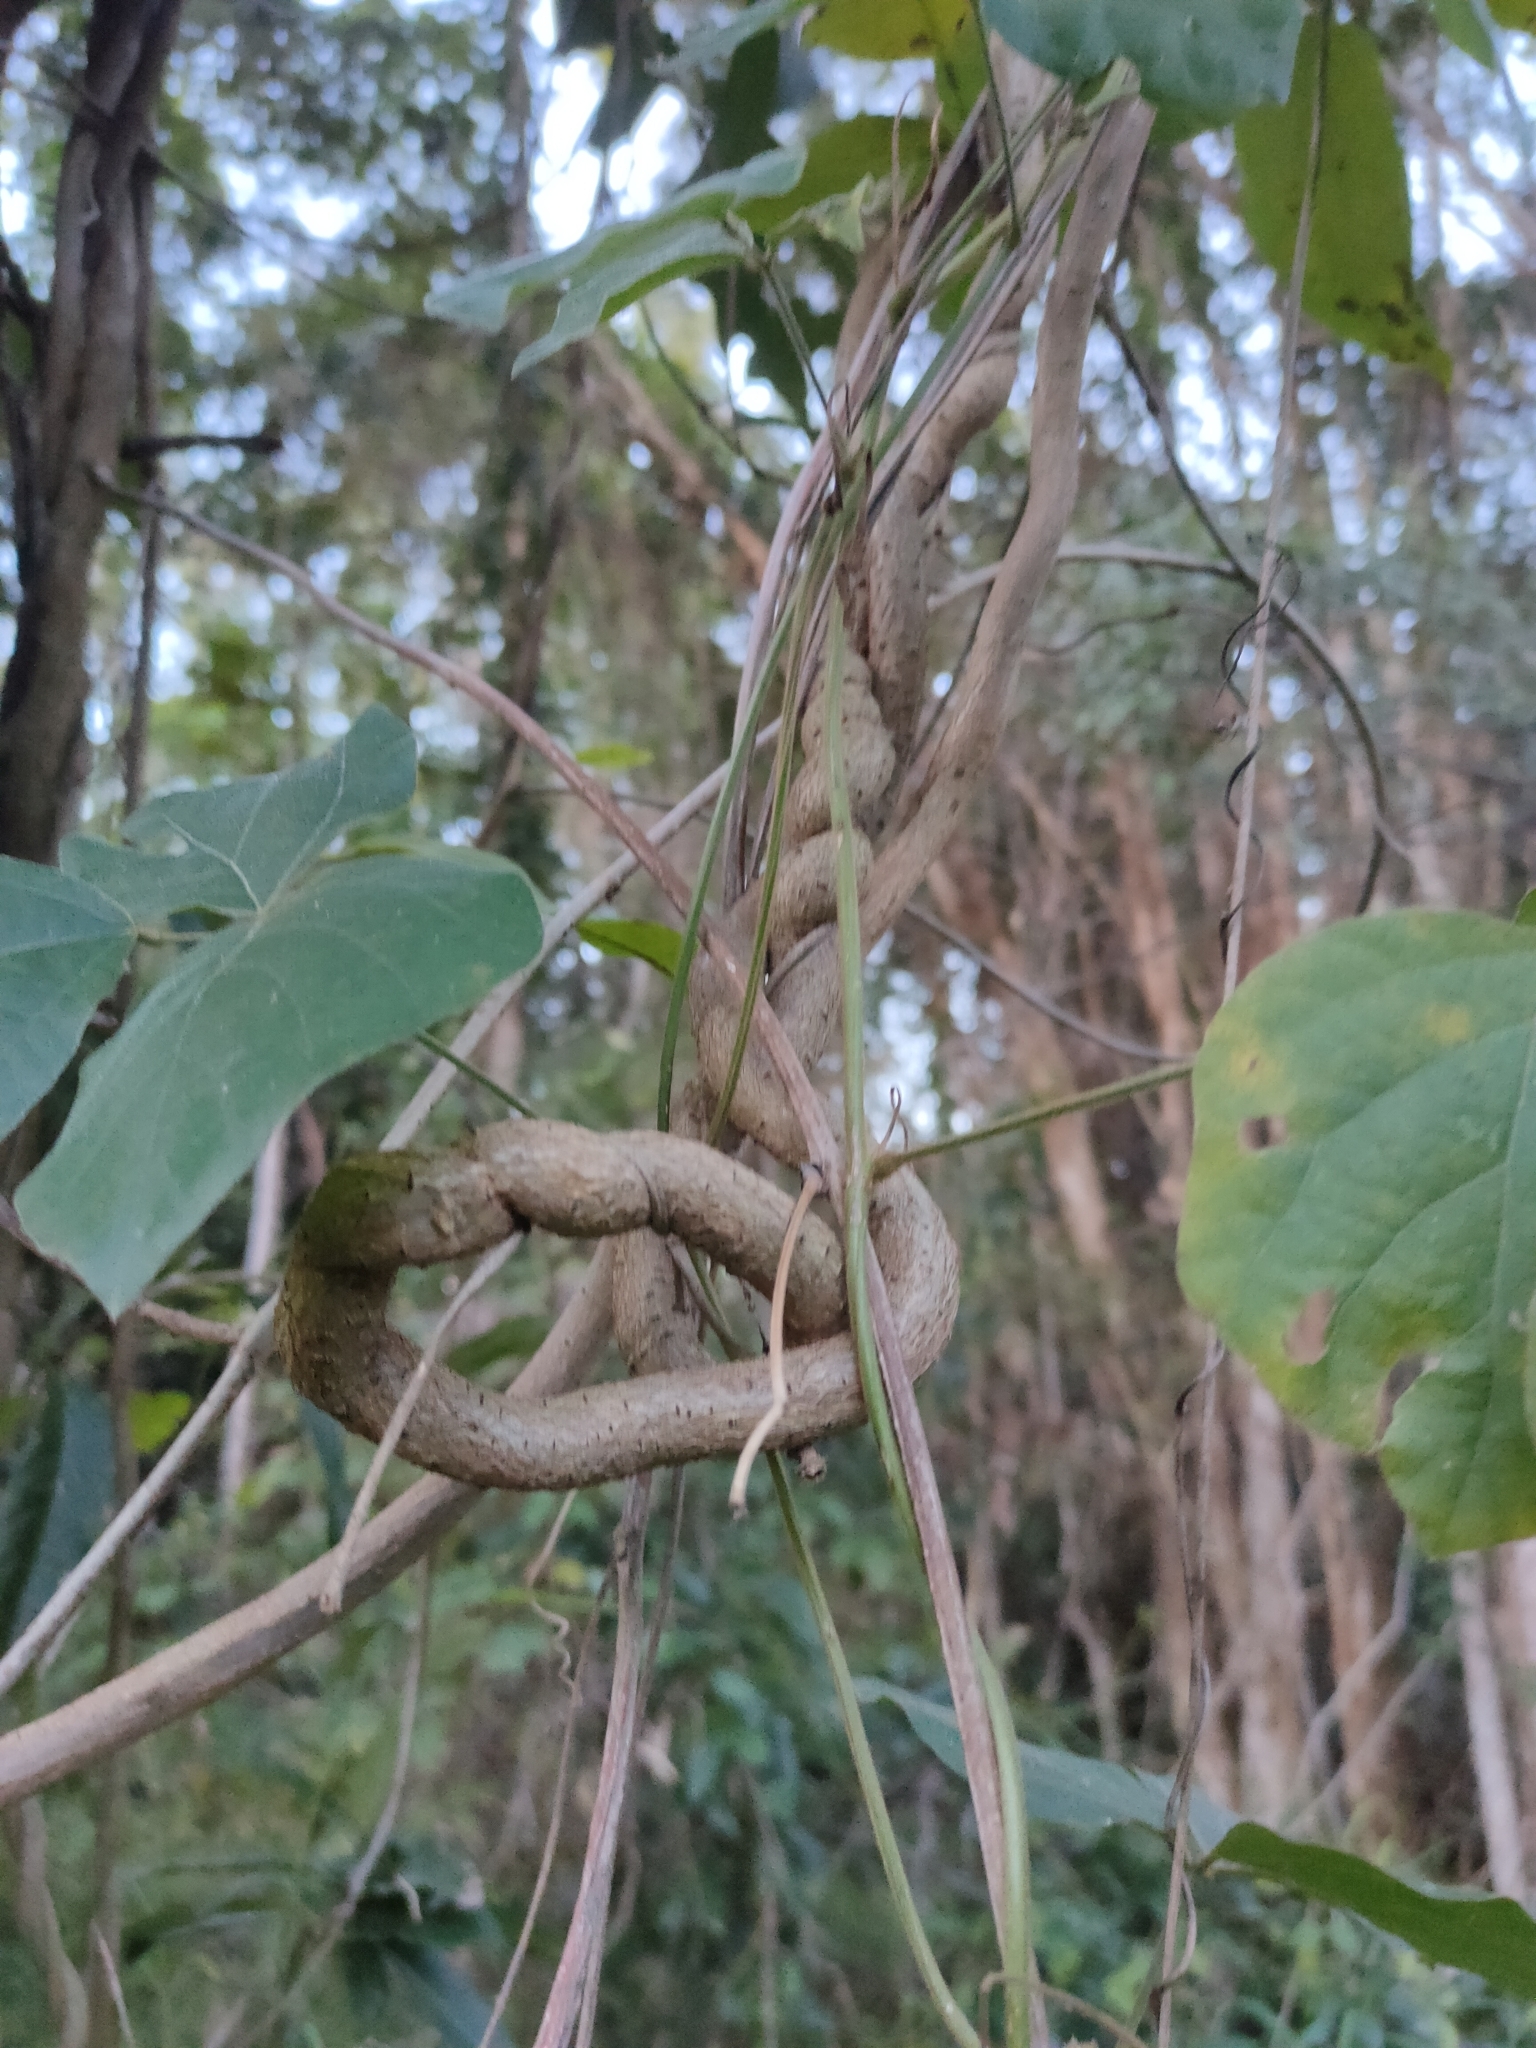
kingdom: Plantae
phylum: Tracheophyta
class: Magnoliopsida
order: Fabales
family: Fabaceae
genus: Mucuna
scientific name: Mucuna gigantea
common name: Black-bean
